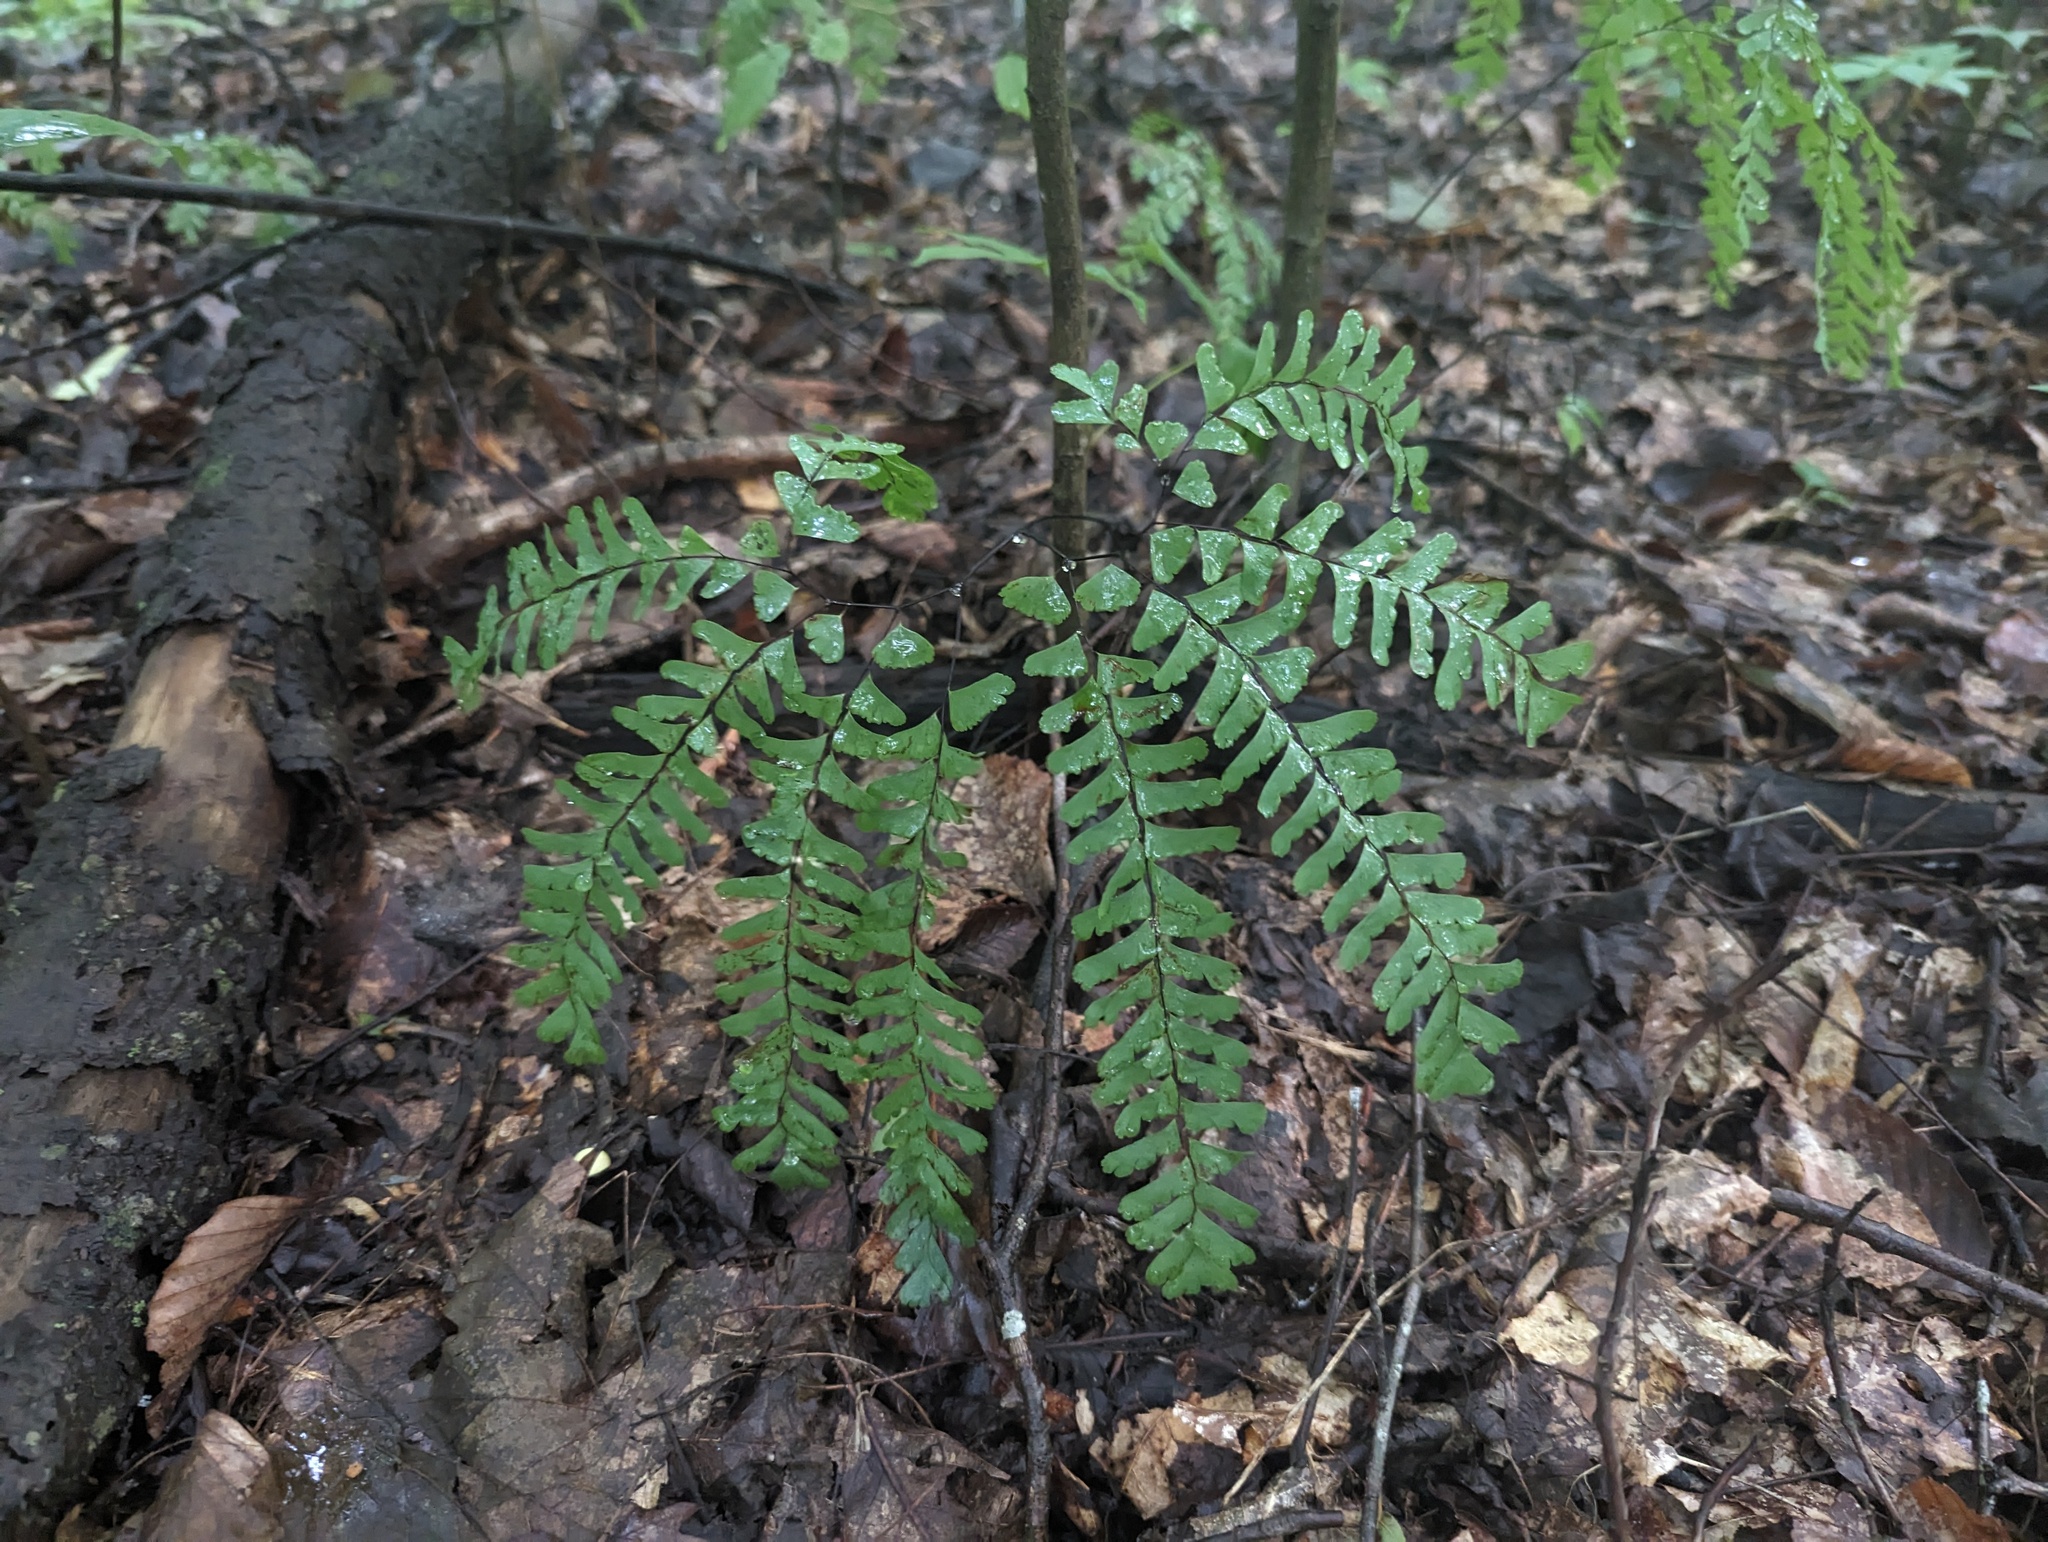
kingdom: Plantae
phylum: Tracheophyta
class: Polypodiopsida
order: Polypodiales
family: Pteridaceae
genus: Adiantum
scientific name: Adiantum pedatum
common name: Five-finger fern
